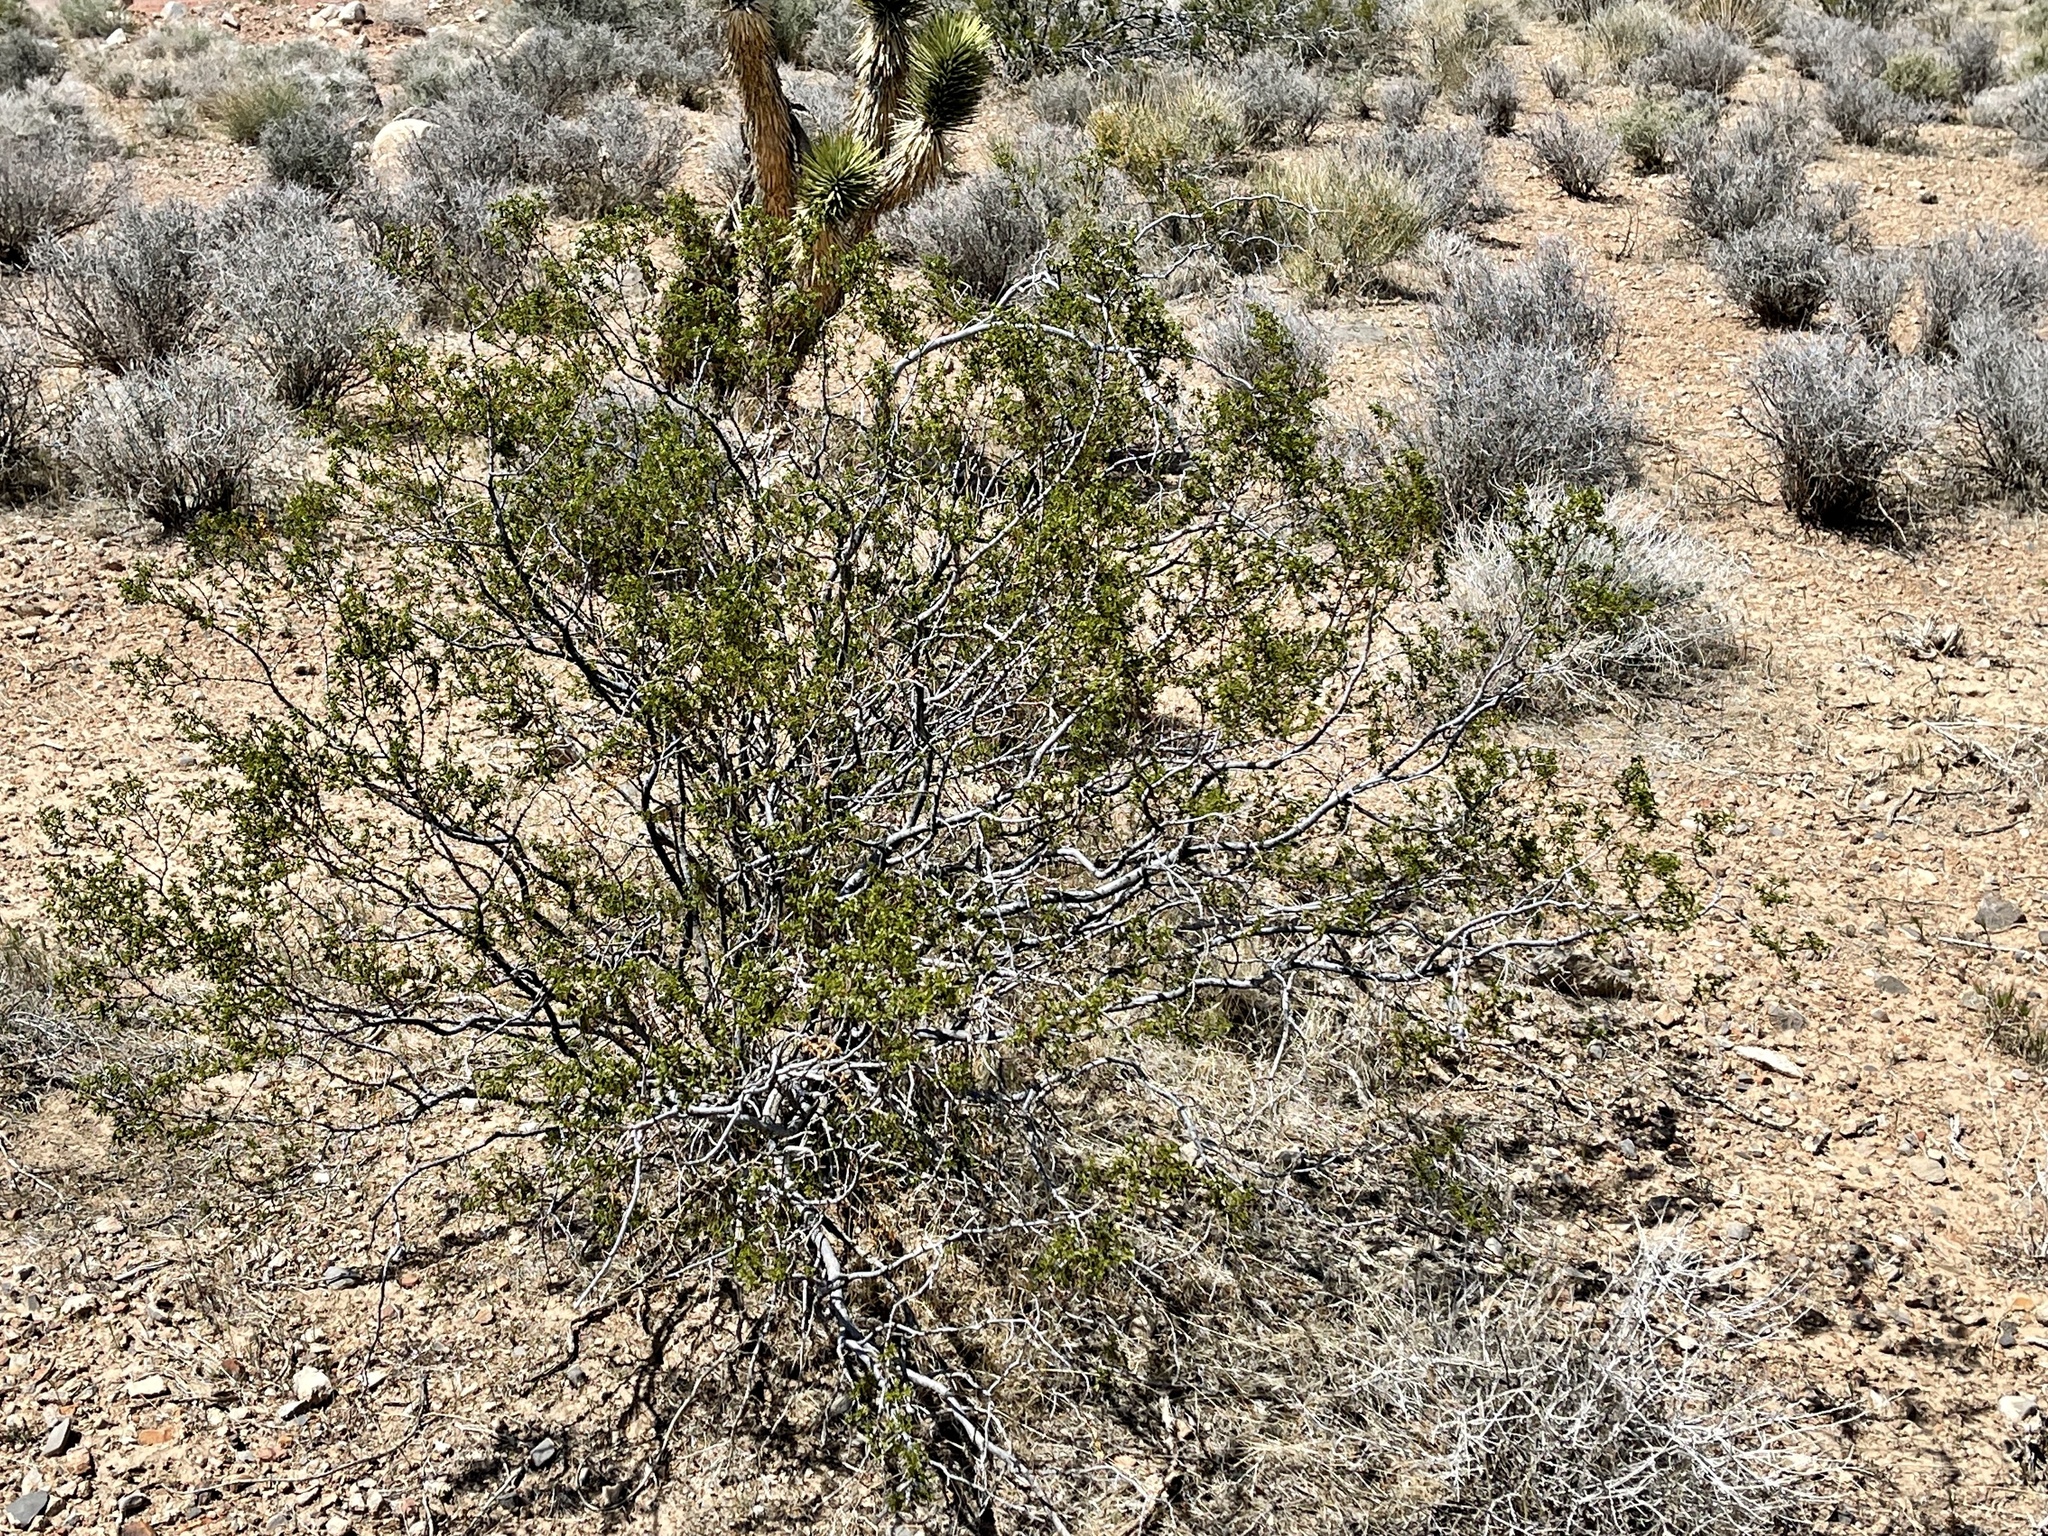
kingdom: Plantae
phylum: Tracheophyta
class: Magnoliopsida
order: Zygophyllales
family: Zygophyllaceae
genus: Larrea
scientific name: Larrea tridentata
